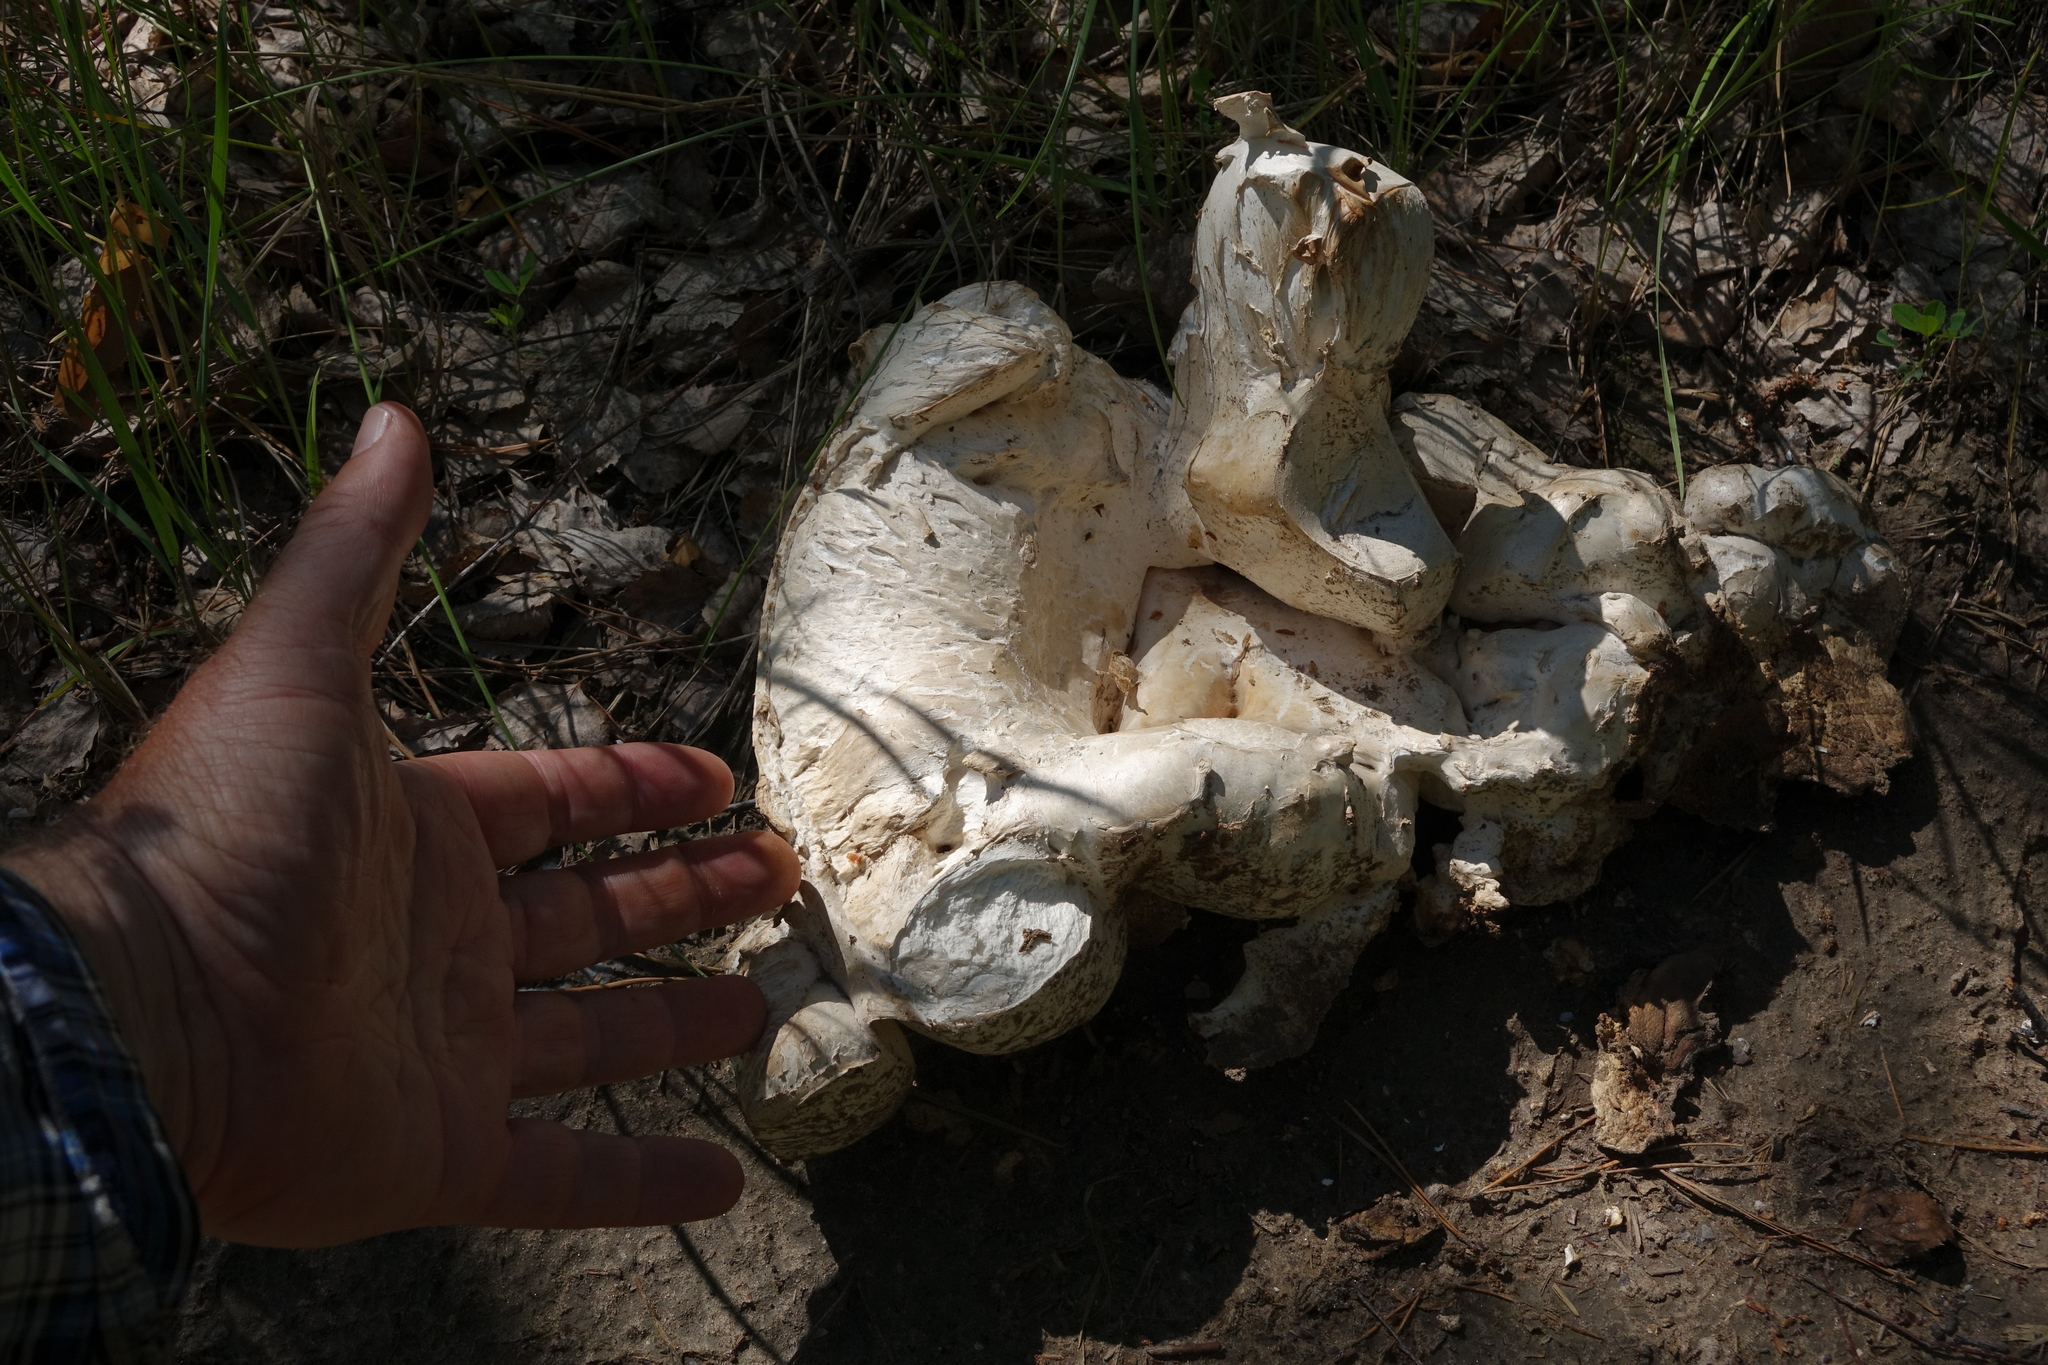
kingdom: Fungi
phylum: Basidiomycota
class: Agaricomycetes
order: Agaricales
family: Lycoperdaceae
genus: Calvatia
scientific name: Calvatia gigantea
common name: Giant puffball
